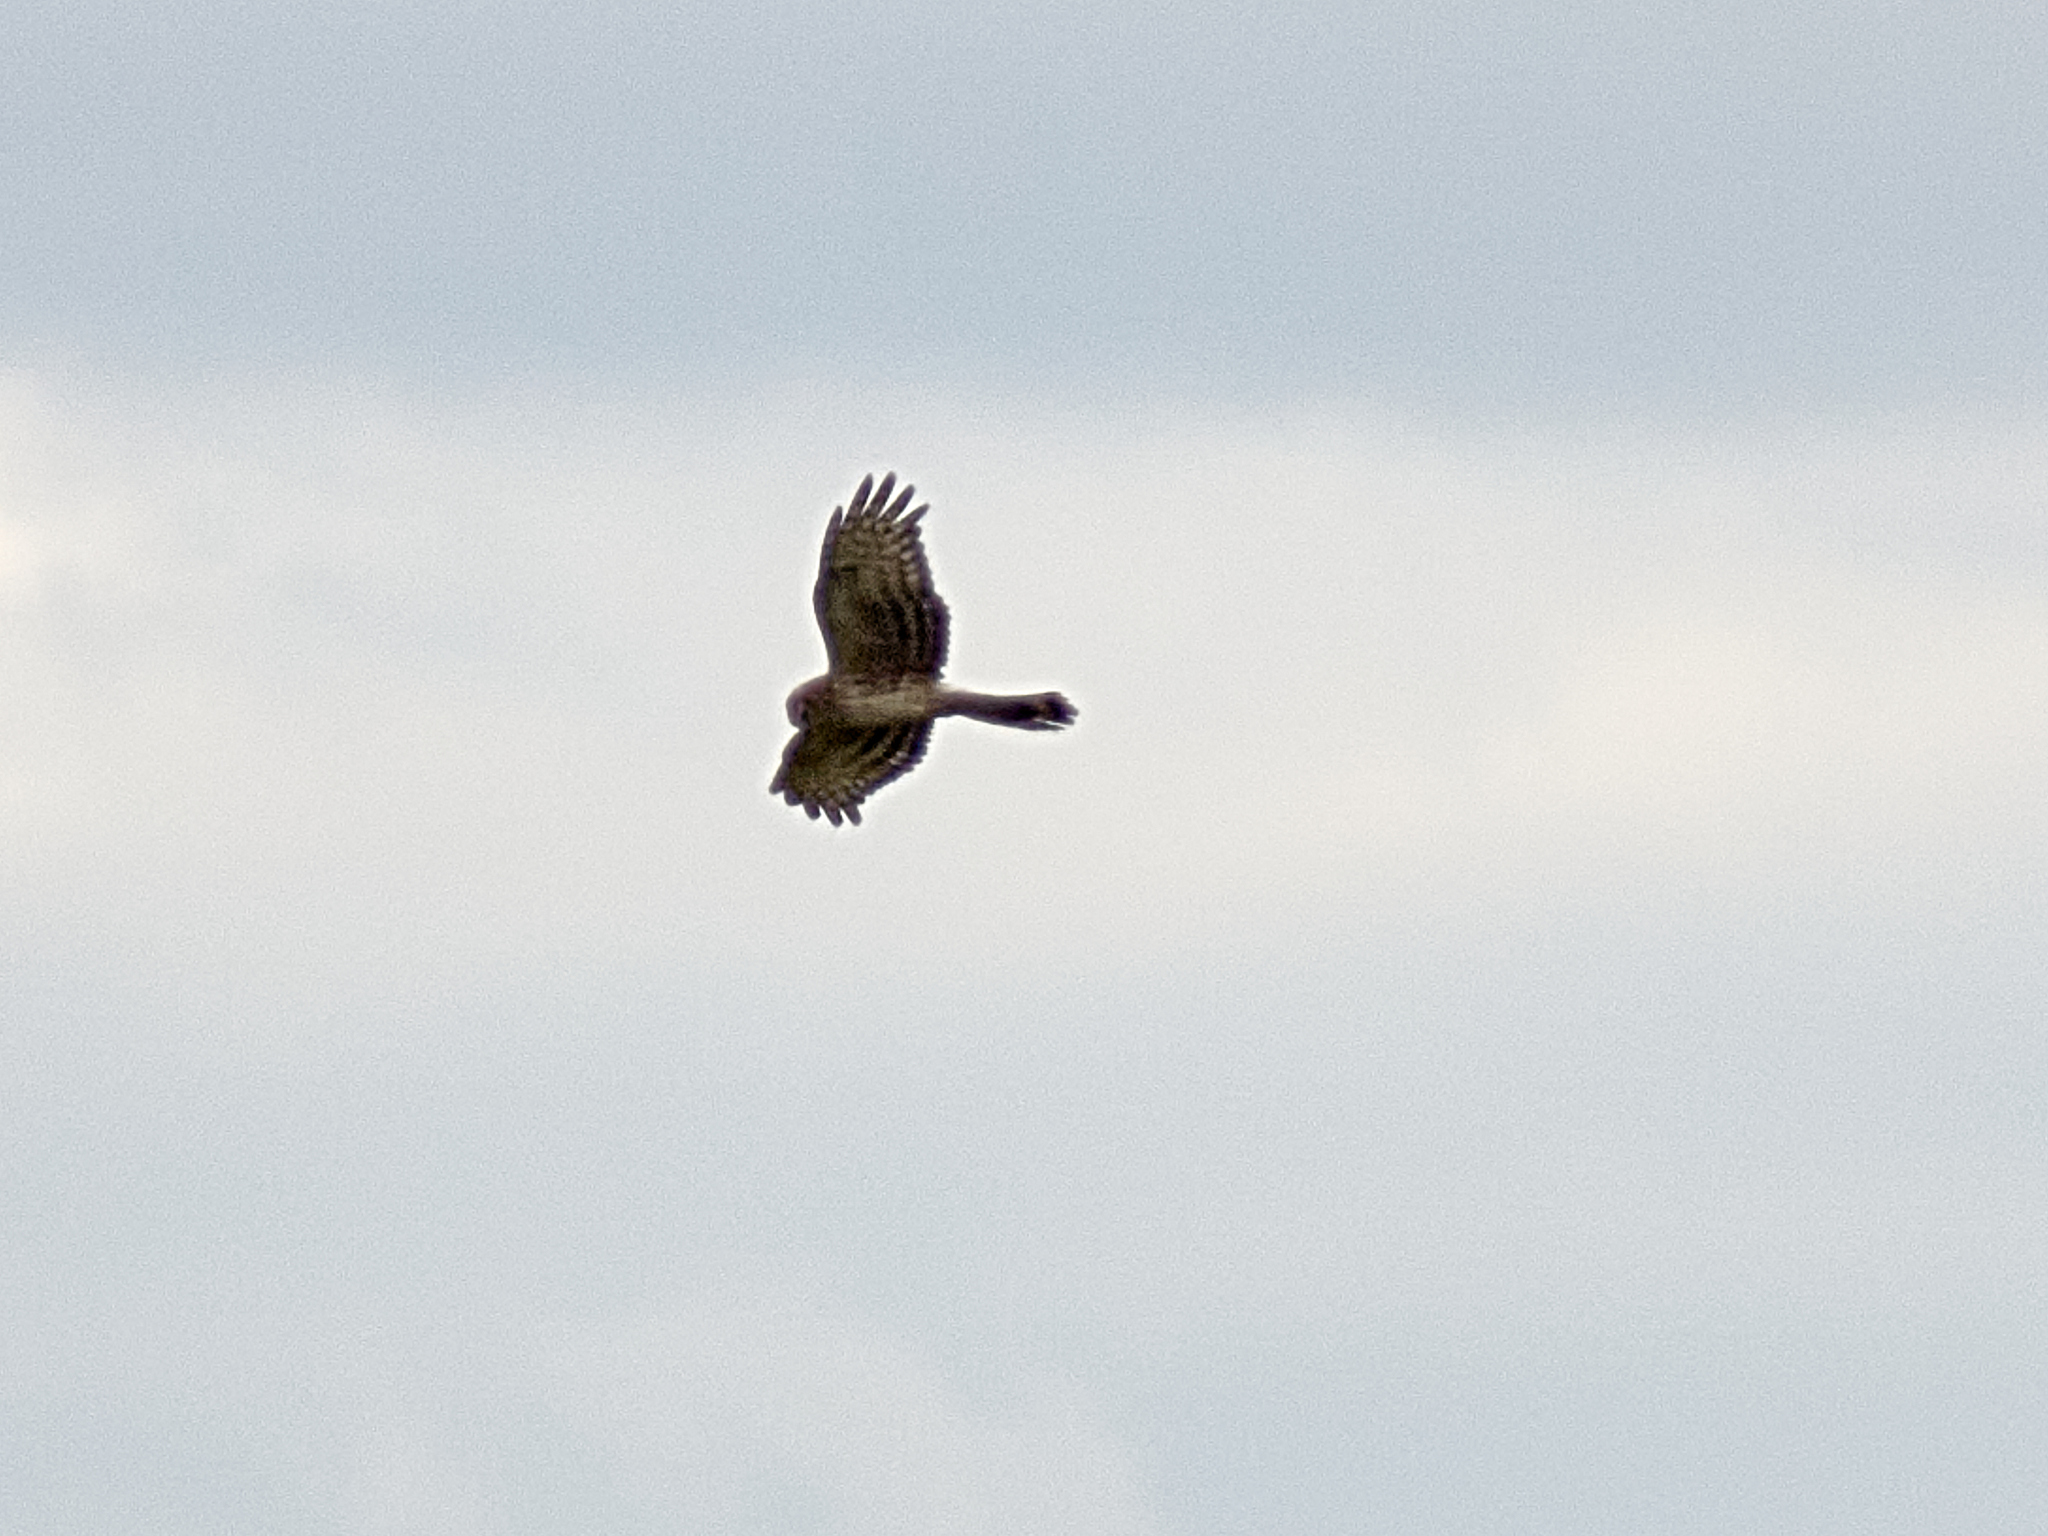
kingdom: Animalia
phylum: Chordata
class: Aves
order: Accipitriformes
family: Accipitridae
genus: Circus
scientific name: Circus cyaneus
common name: Hen harrier
